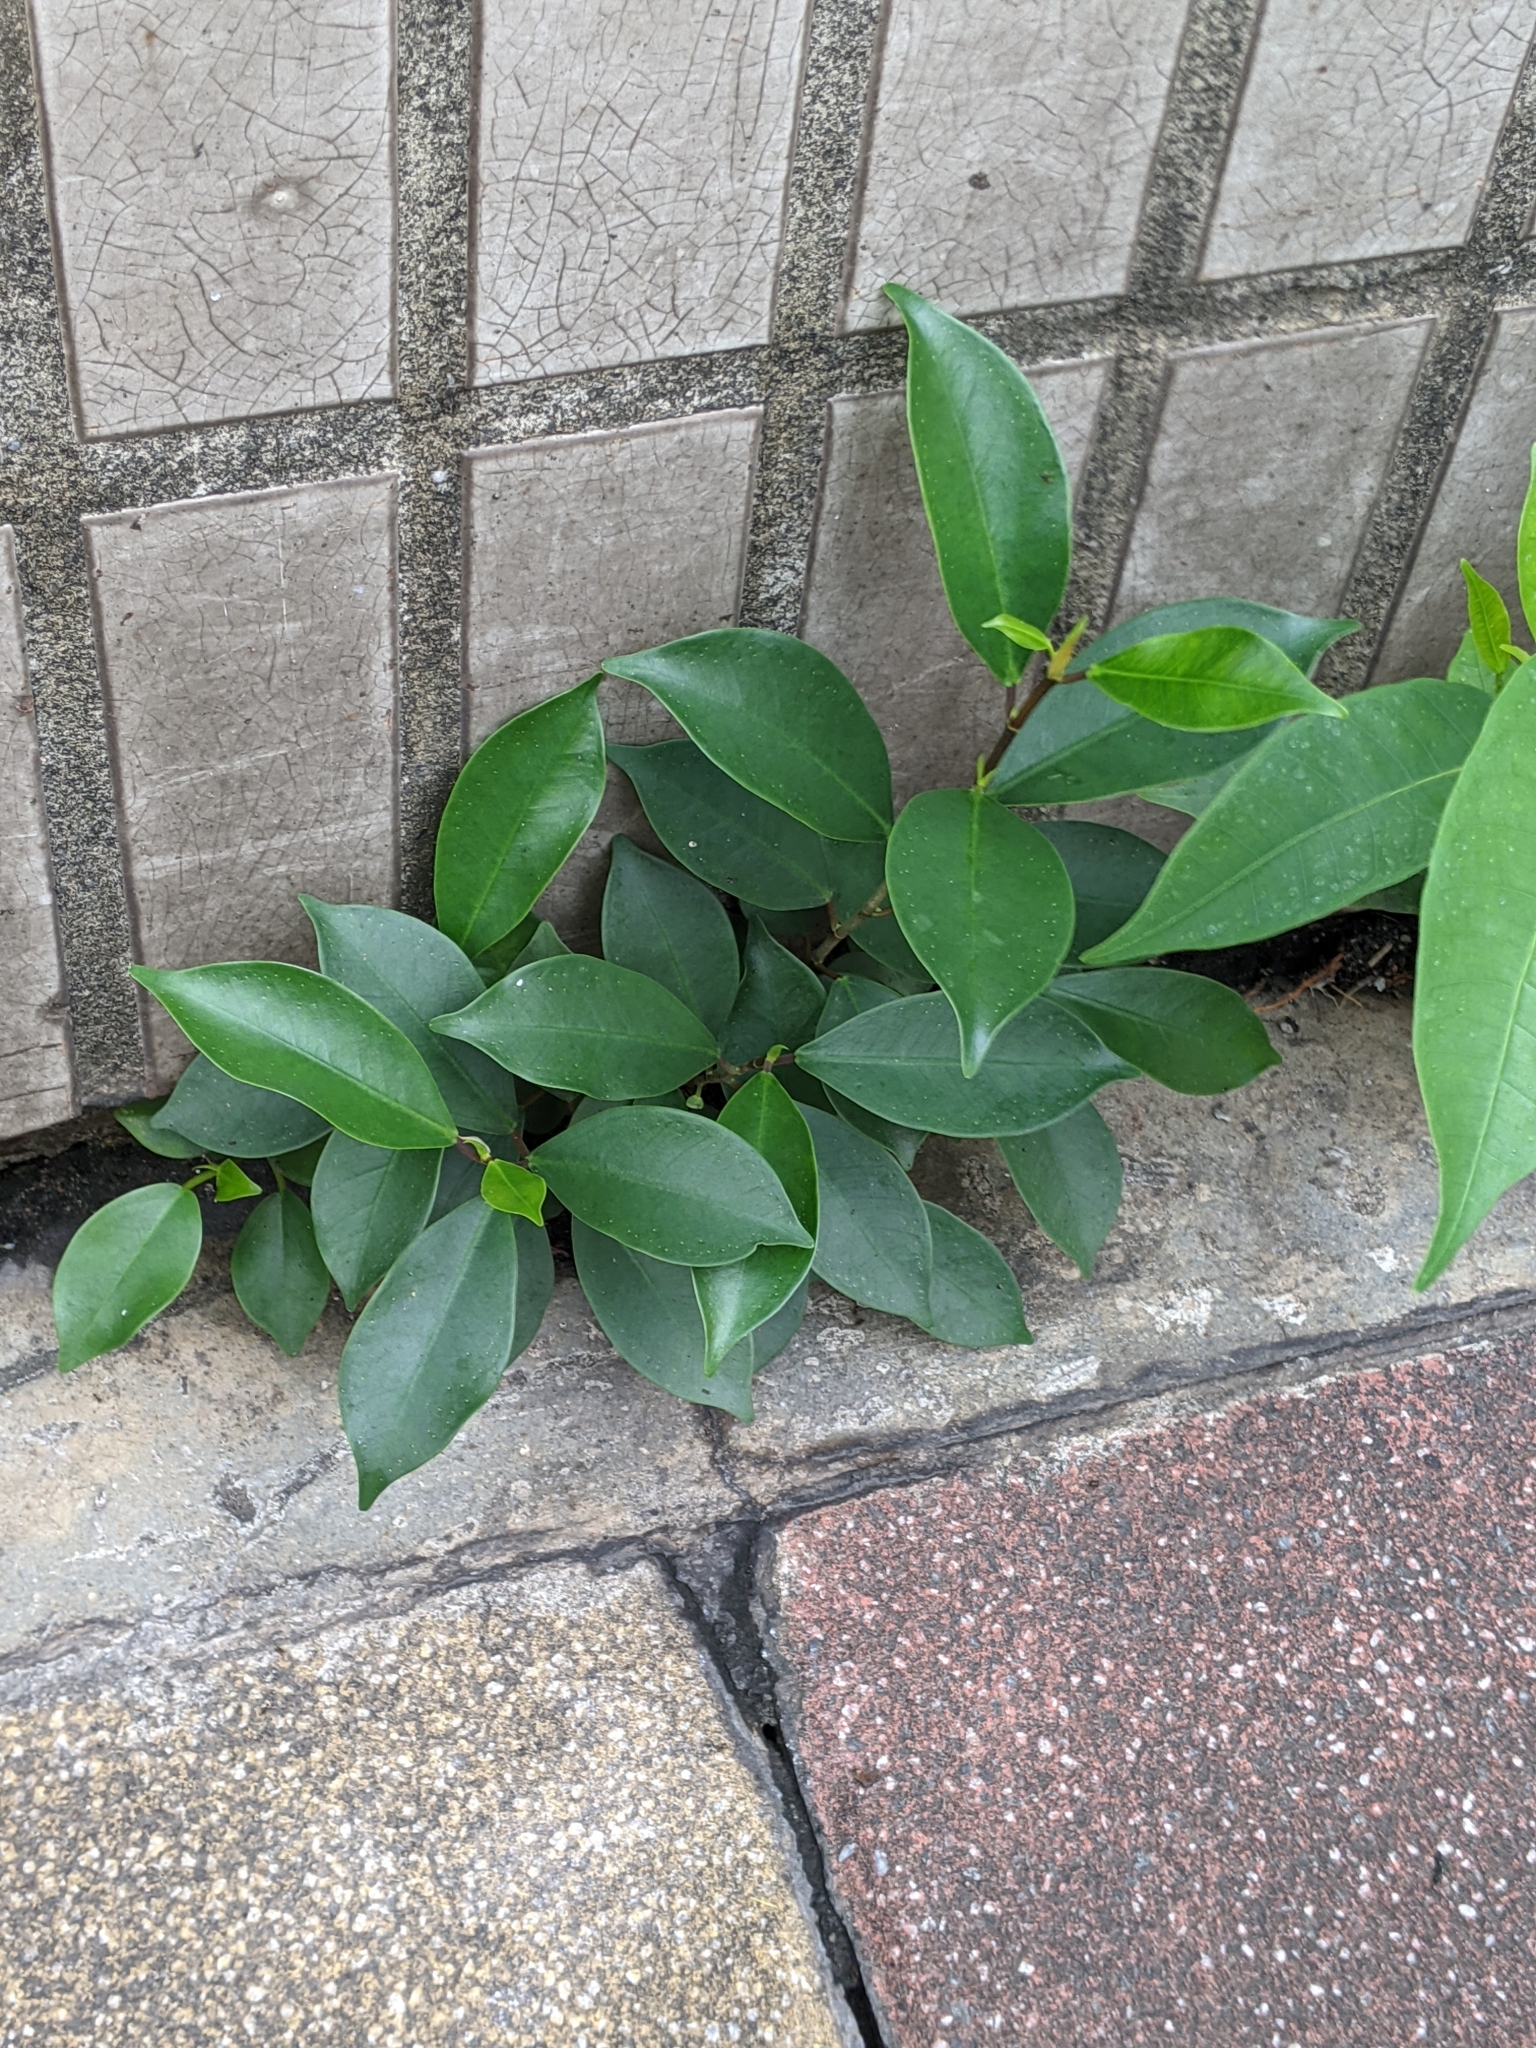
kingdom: Plantae
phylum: Tracheophyta
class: Magnoliopsida
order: Rosales
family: Moraceae
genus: Ficus
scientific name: Ficus microcarpa
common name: Chinese banyan
